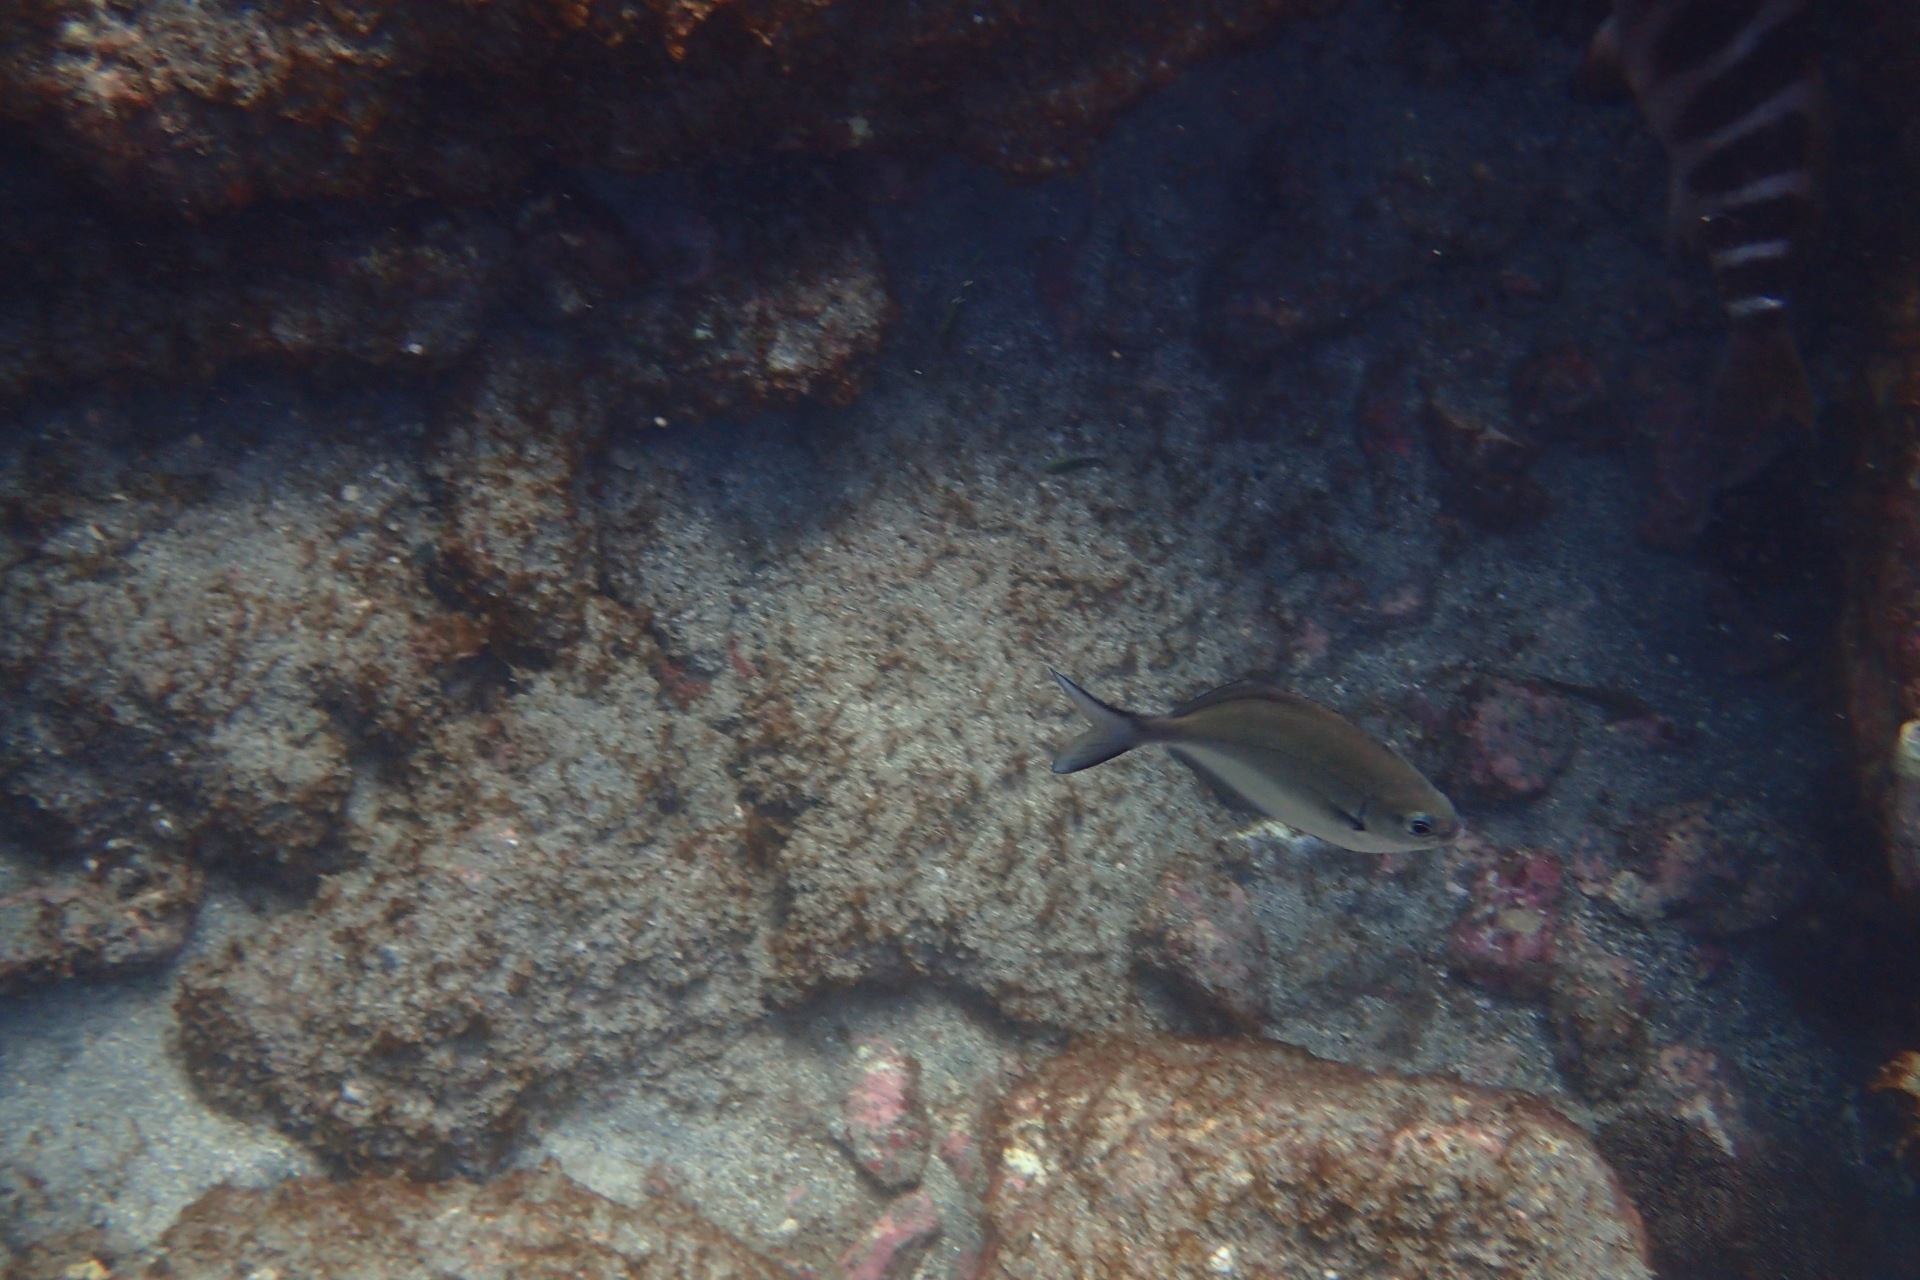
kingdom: Animalia
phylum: Chordata
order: Perciformes
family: Kyphosidae
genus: Scorpis
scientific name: Scorpis lineolata
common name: Sweep
